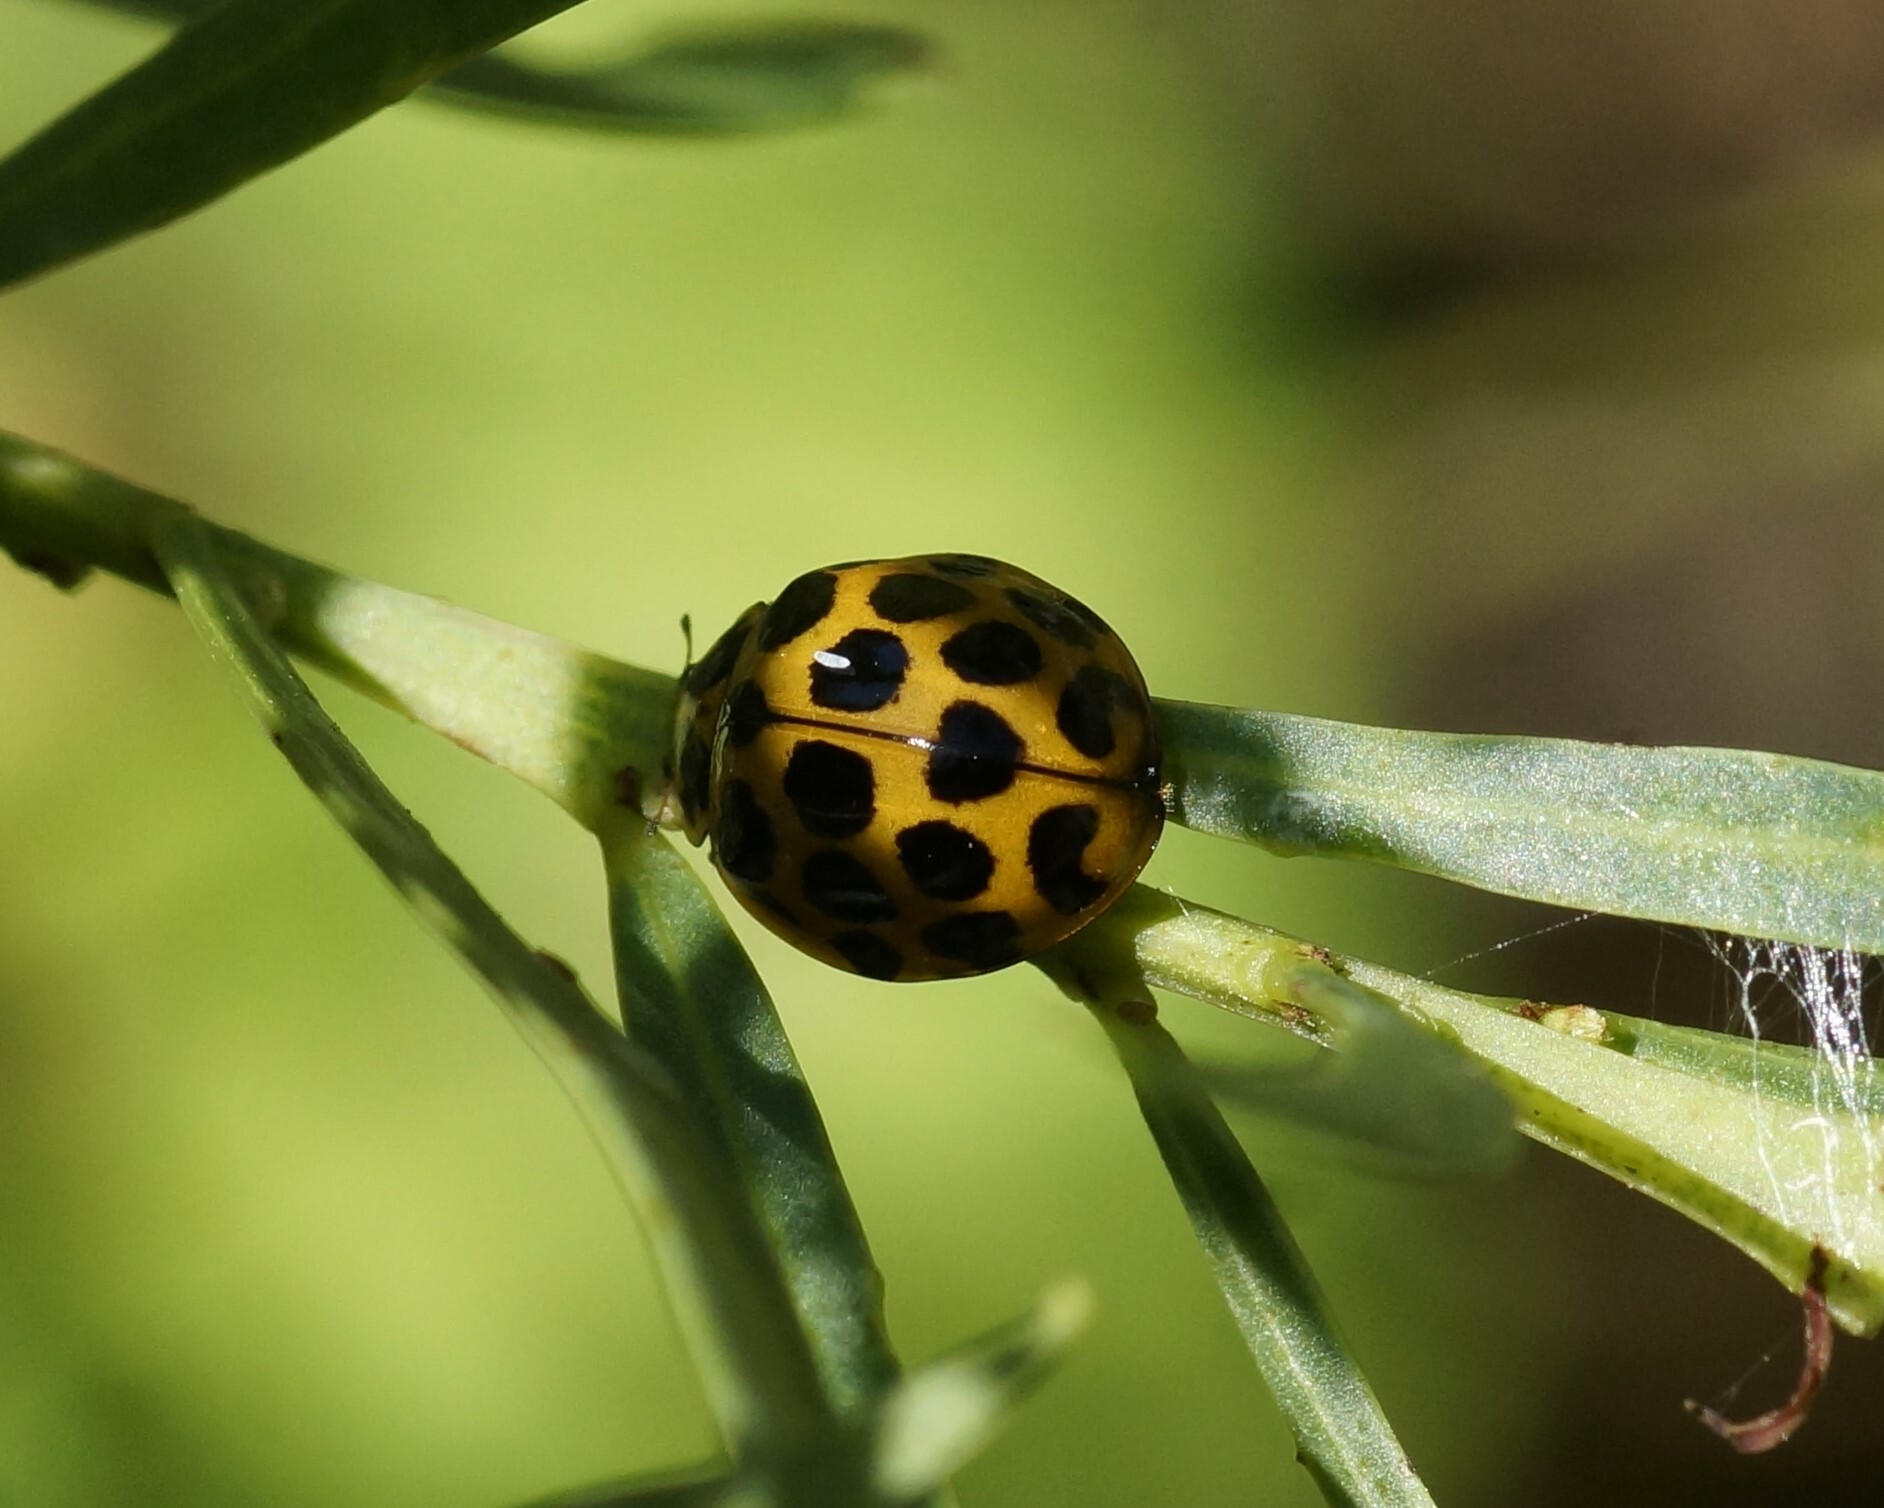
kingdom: Animalia
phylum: Arthropoda
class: Insecta
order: Coleoptera
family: Coccinellidae
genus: Harmonia
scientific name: Harmonia conformis
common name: Common spotted ladybird beetle
